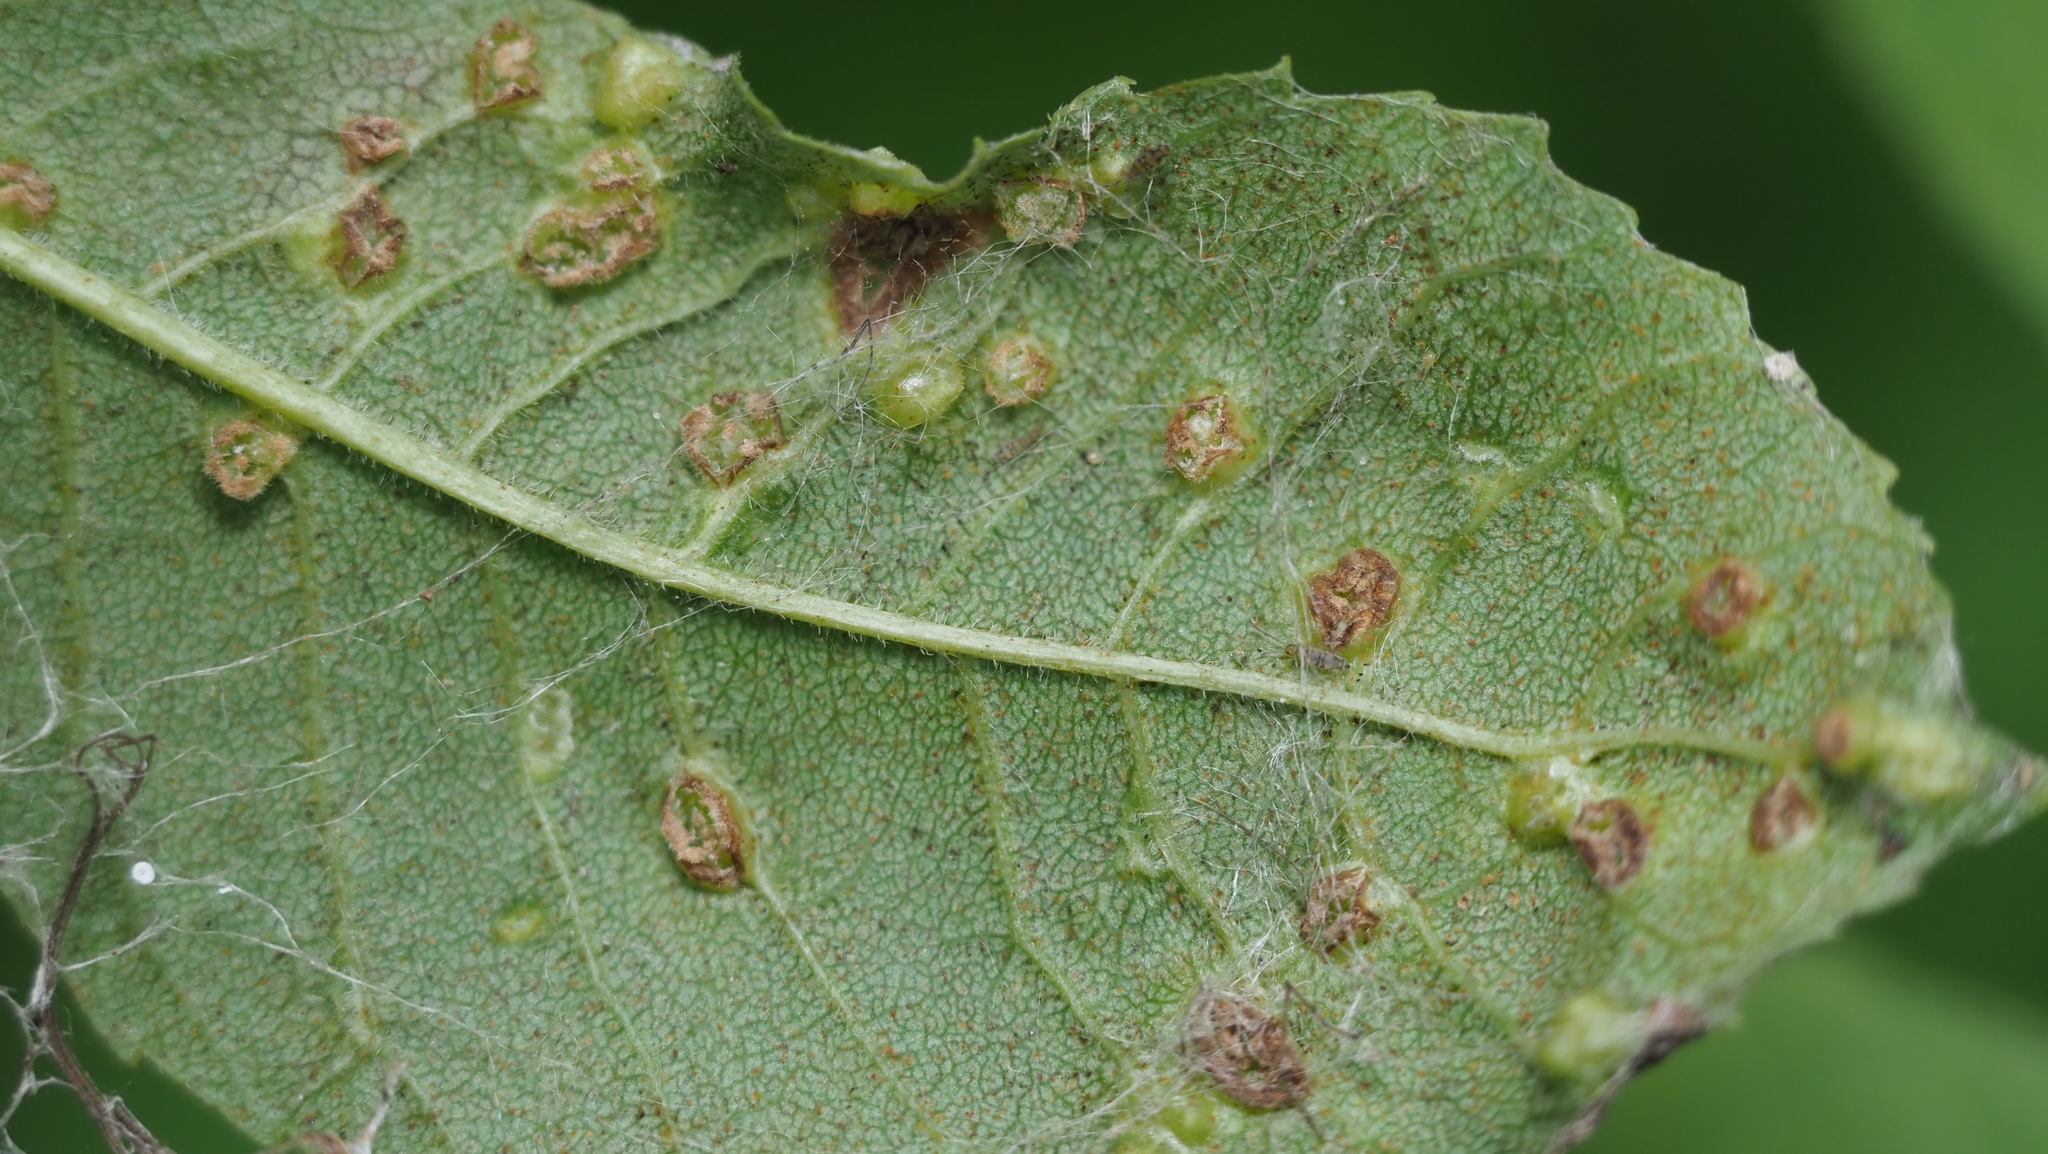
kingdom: Animalia
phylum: Arthropoda
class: Arachnida
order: Trombidiformes
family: Eriophyidae
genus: Aceria
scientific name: Aceria fraxinicola
